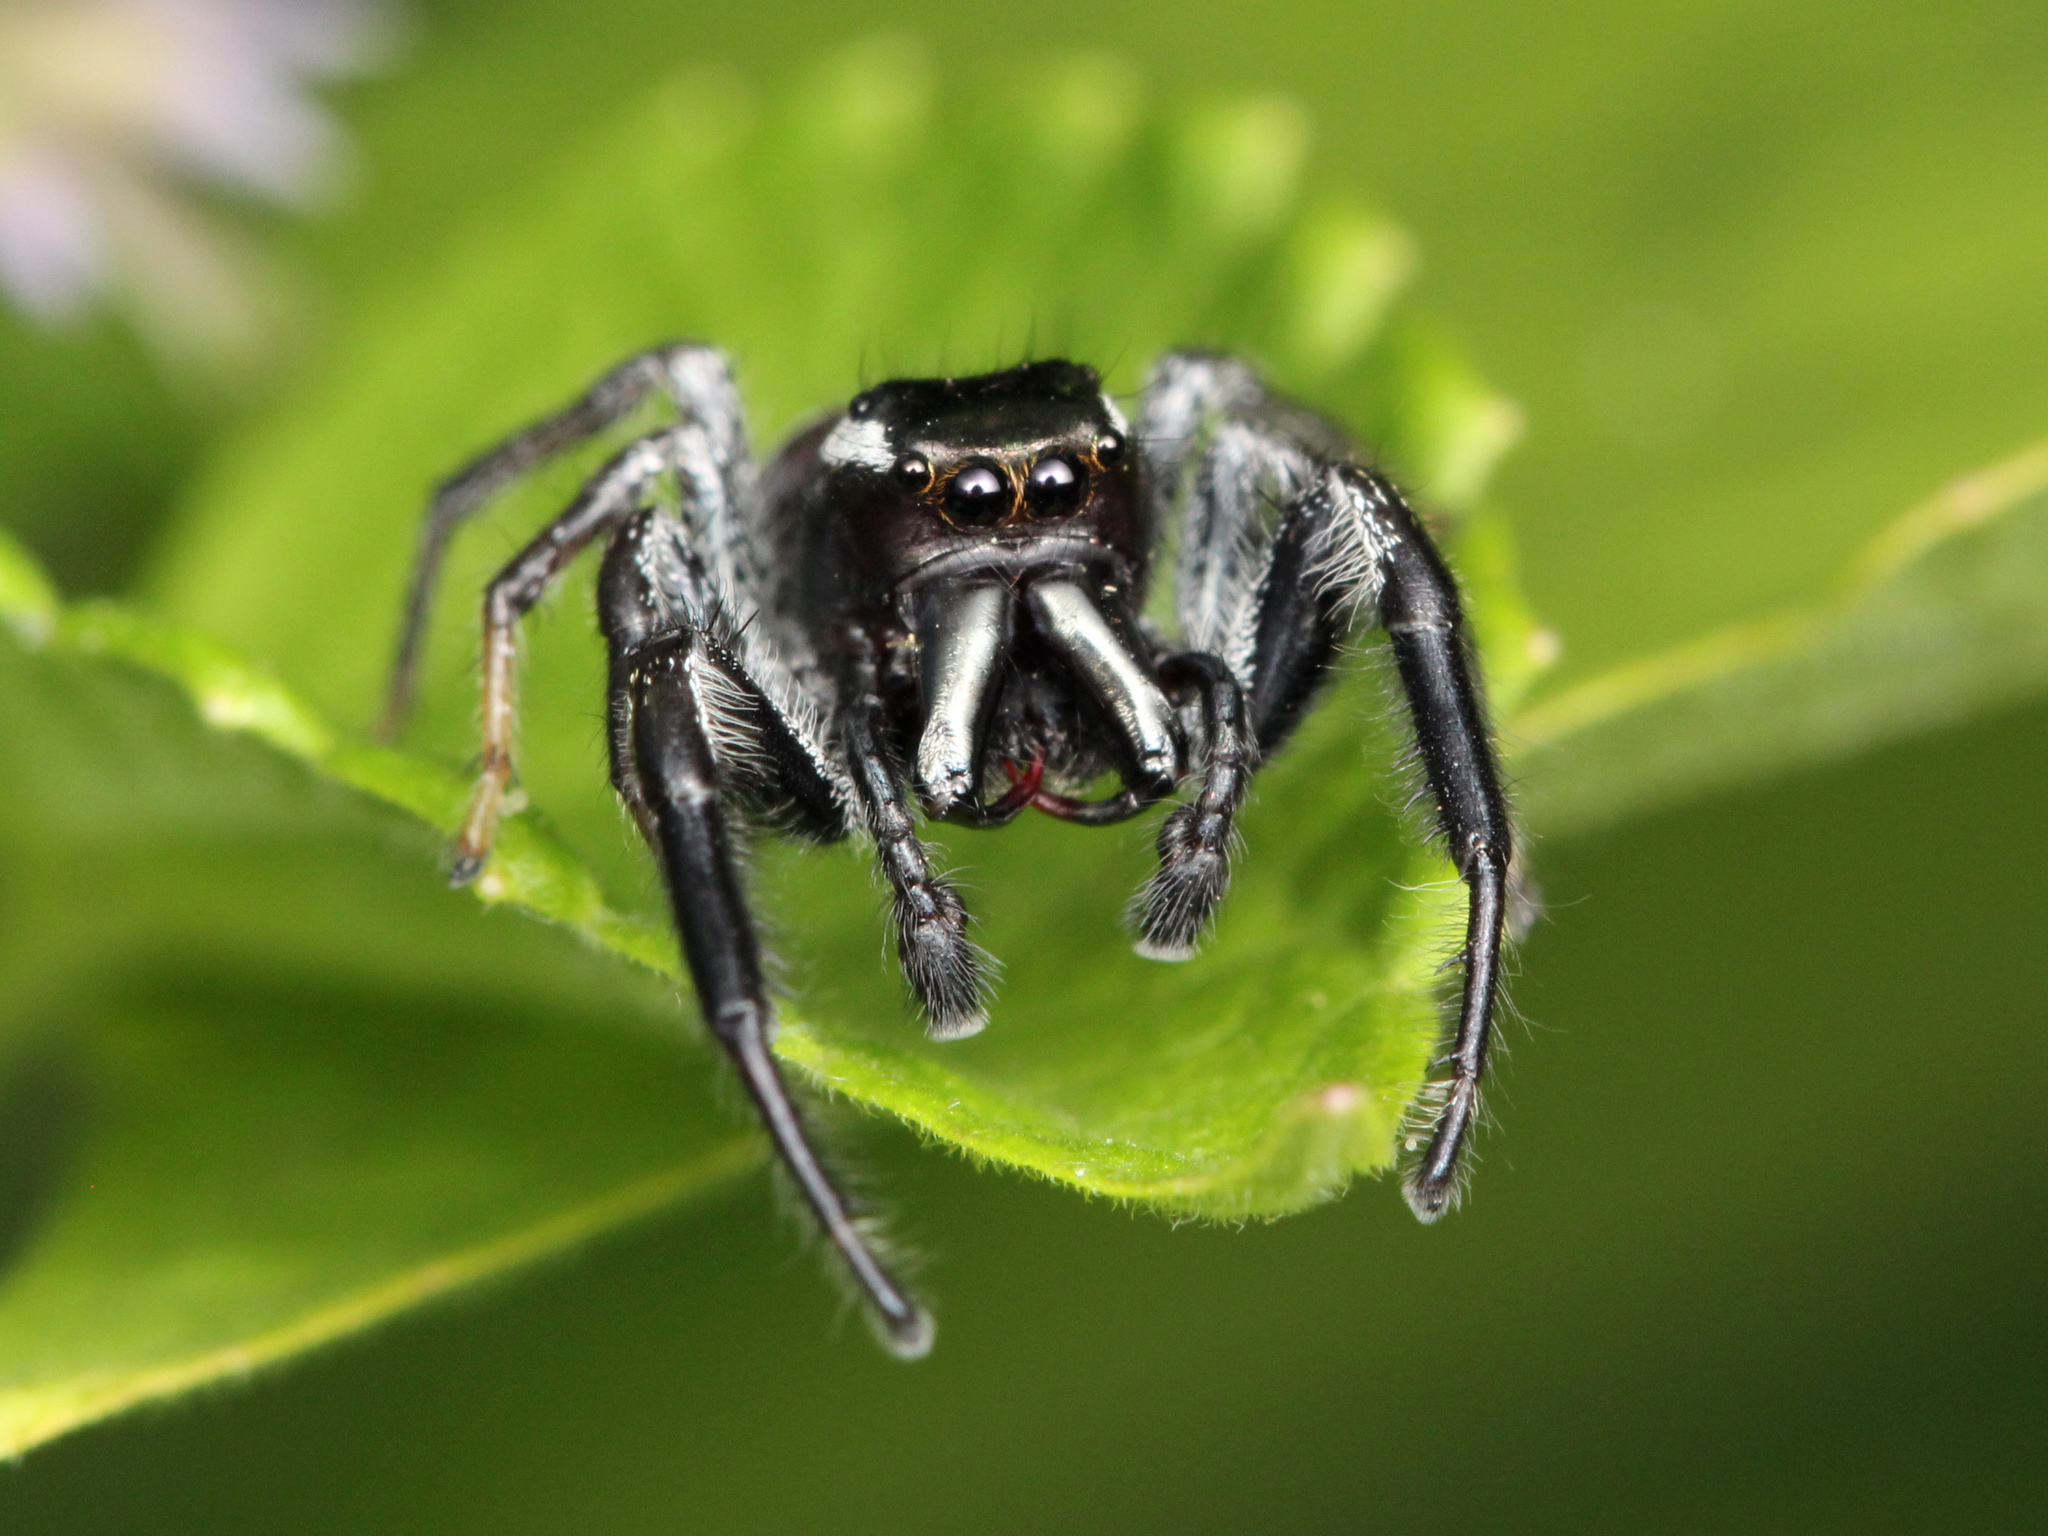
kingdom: Animalia
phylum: Arthropoda
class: Arachnida
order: Araneae
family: Salticidae
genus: Paraphidippus
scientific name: Paraphidippus aurantius
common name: Jumping spiders
